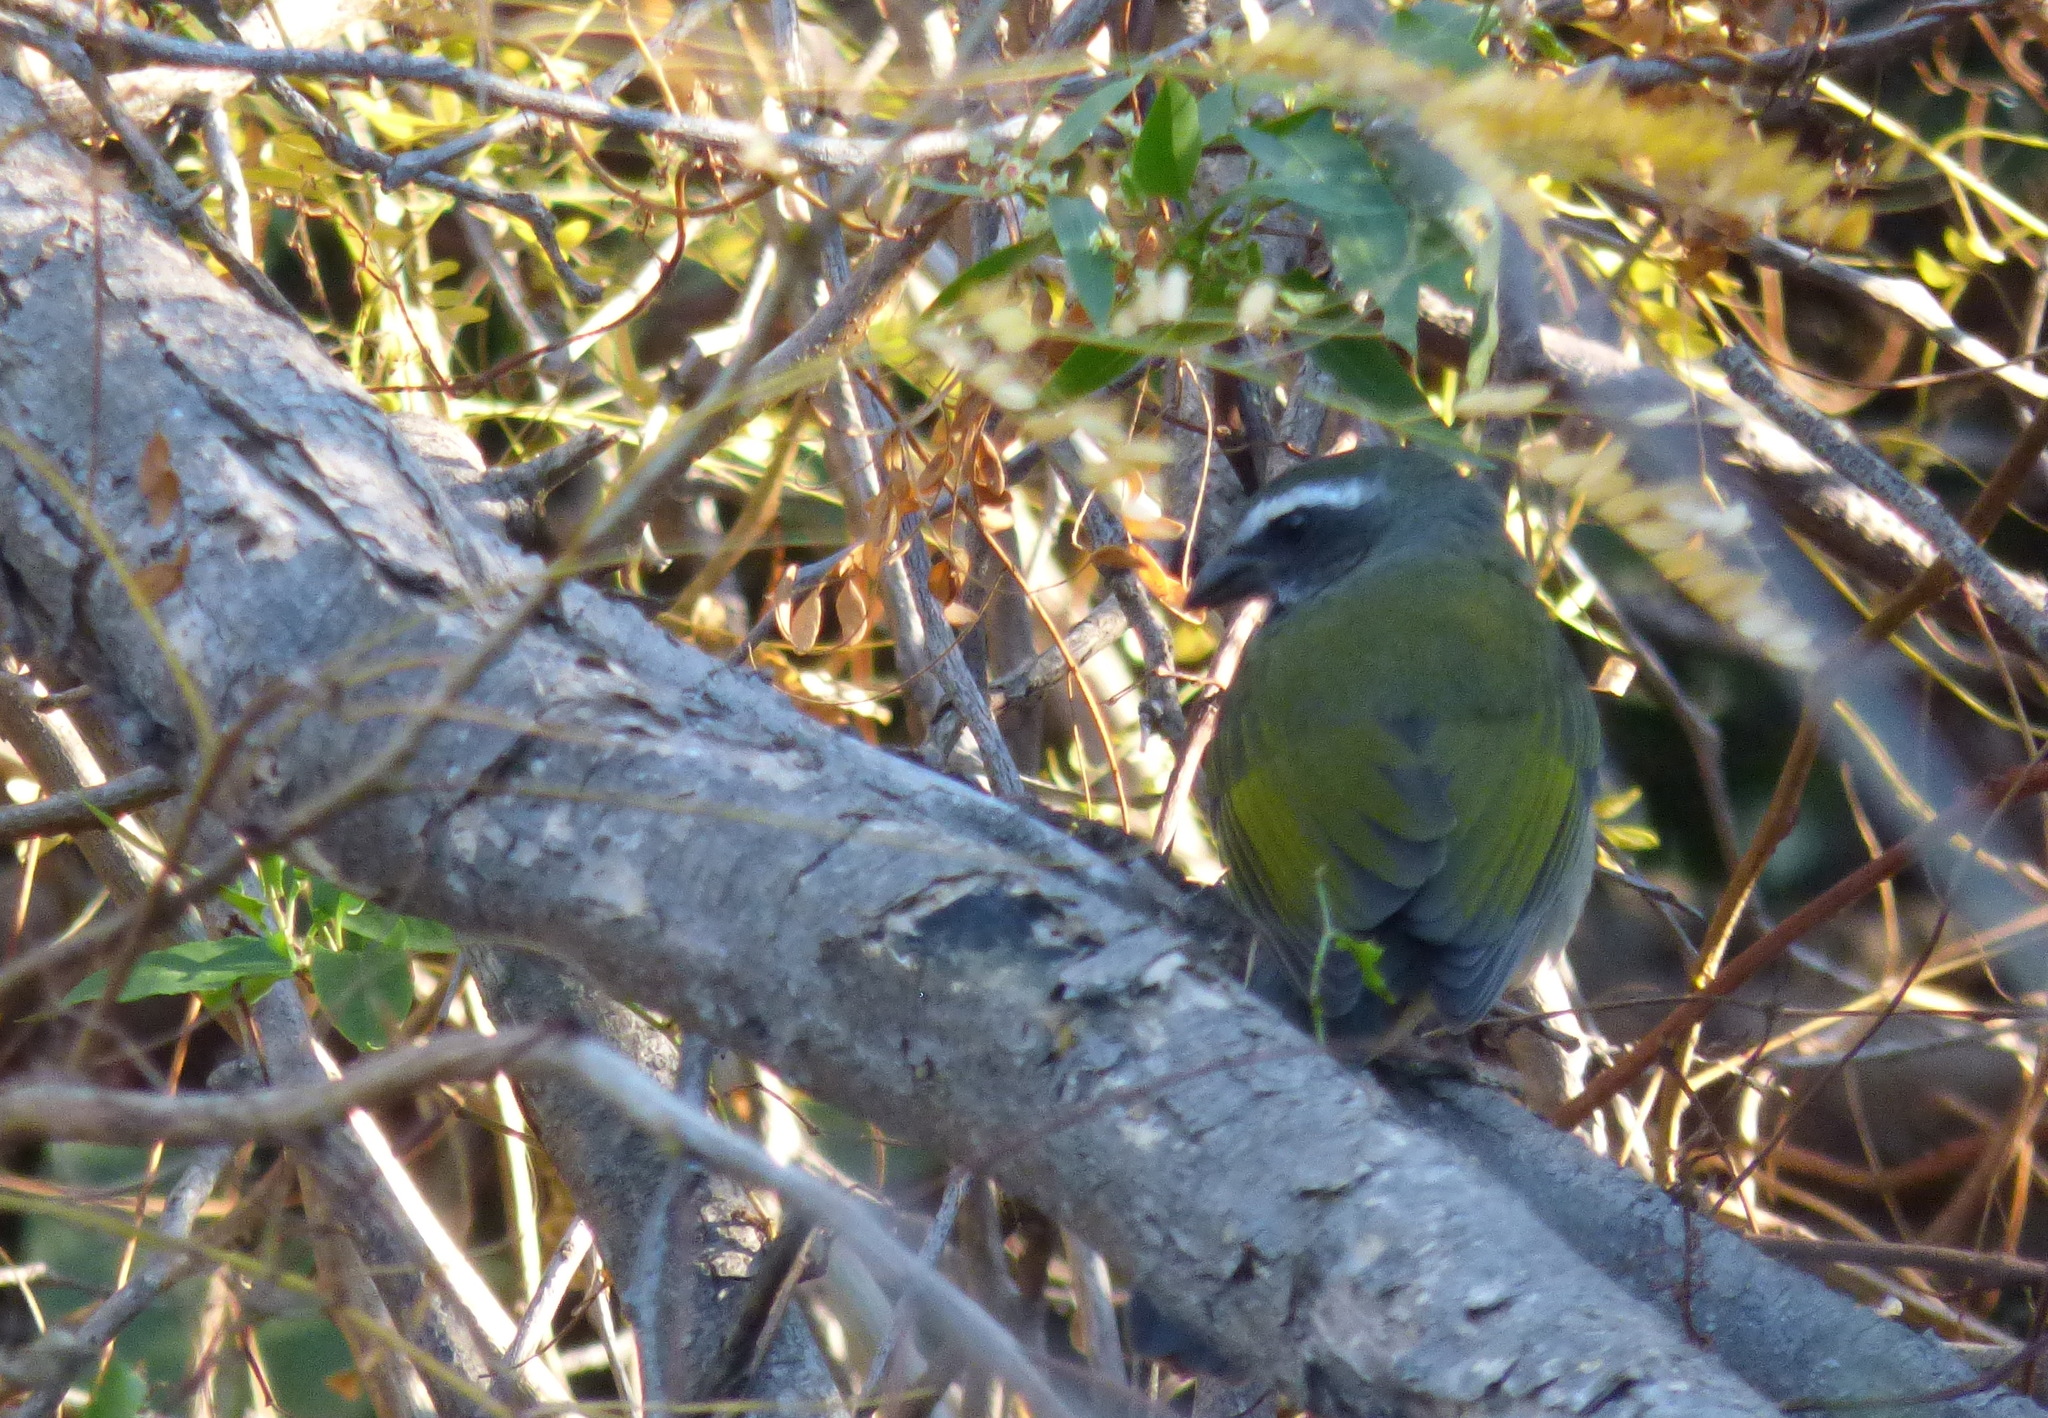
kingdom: Animalia
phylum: Chordata
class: Aves
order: Passeriformes
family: Thraupidae
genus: Saltator
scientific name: Saltator similis
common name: Green-winged saltator
